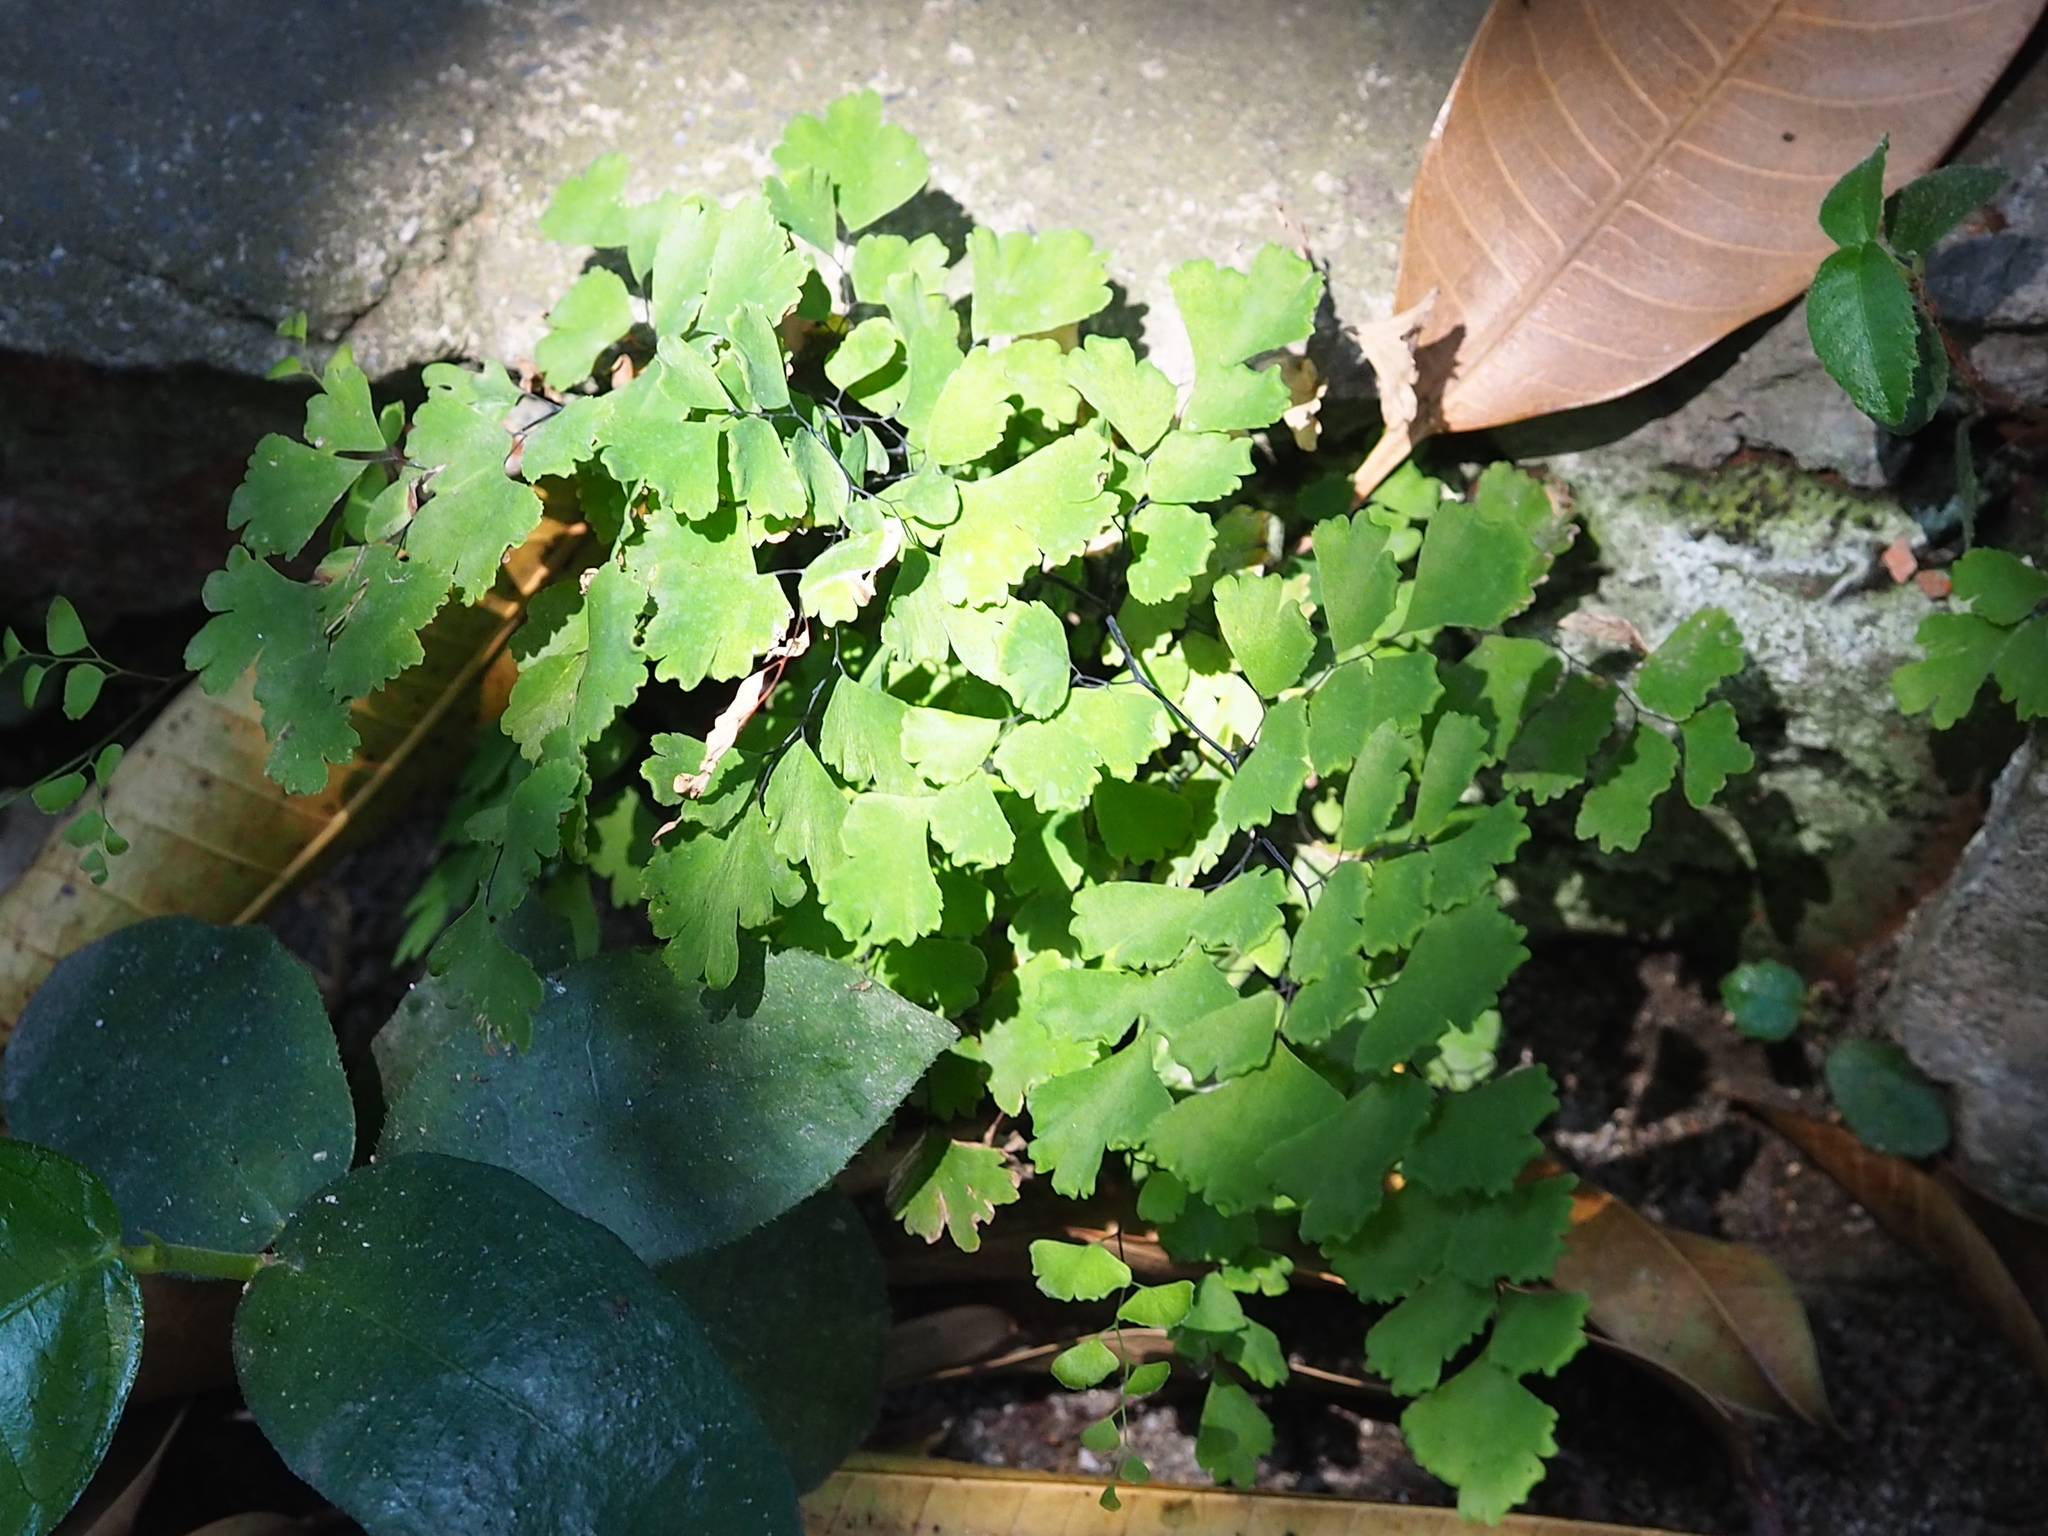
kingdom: Plantae
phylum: Tracheophyta
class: Polypodiopsida
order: Polypodiales
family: Pteridaceae
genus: Adiantum
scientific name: Adiantum capillus-veneris
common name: Maidenhair fern
